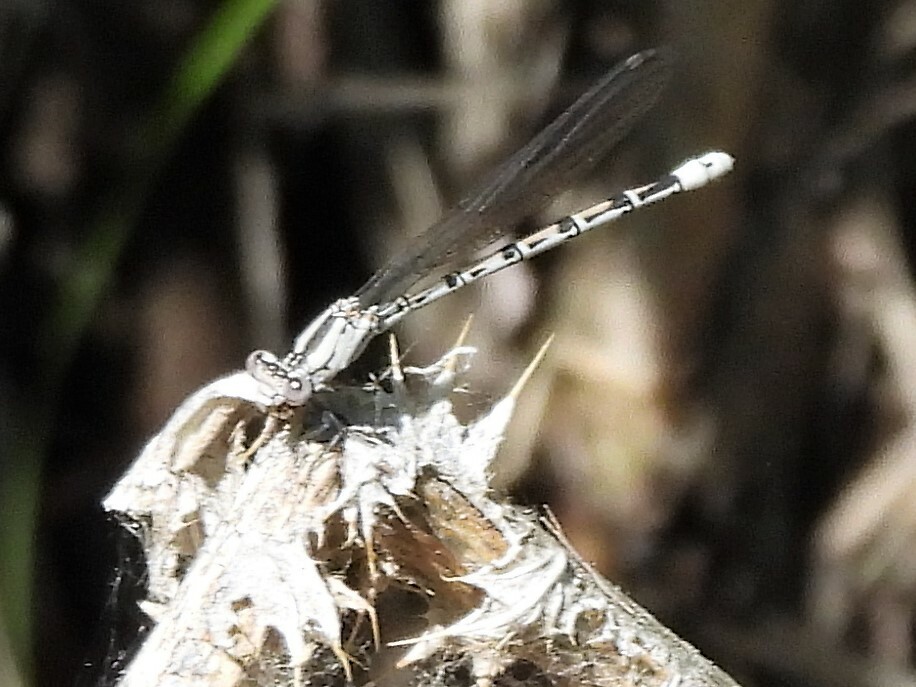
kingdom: Animalia
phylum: Arthropoda
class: Insecta
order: Odonata
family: Coenagrionidae
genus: Argia
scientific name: Argia vivida
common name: Vivid dancer
